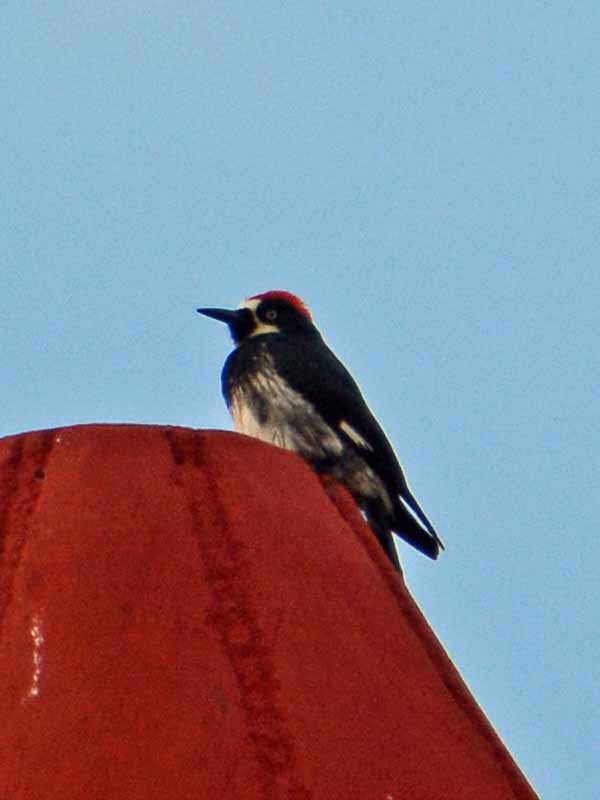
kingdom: Animalia
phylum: Chordata
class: Aves
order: Piciformes
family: Picidae
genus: Melanerpes
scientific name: Melanerpes formicivorus
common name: Acorn woodpecker
